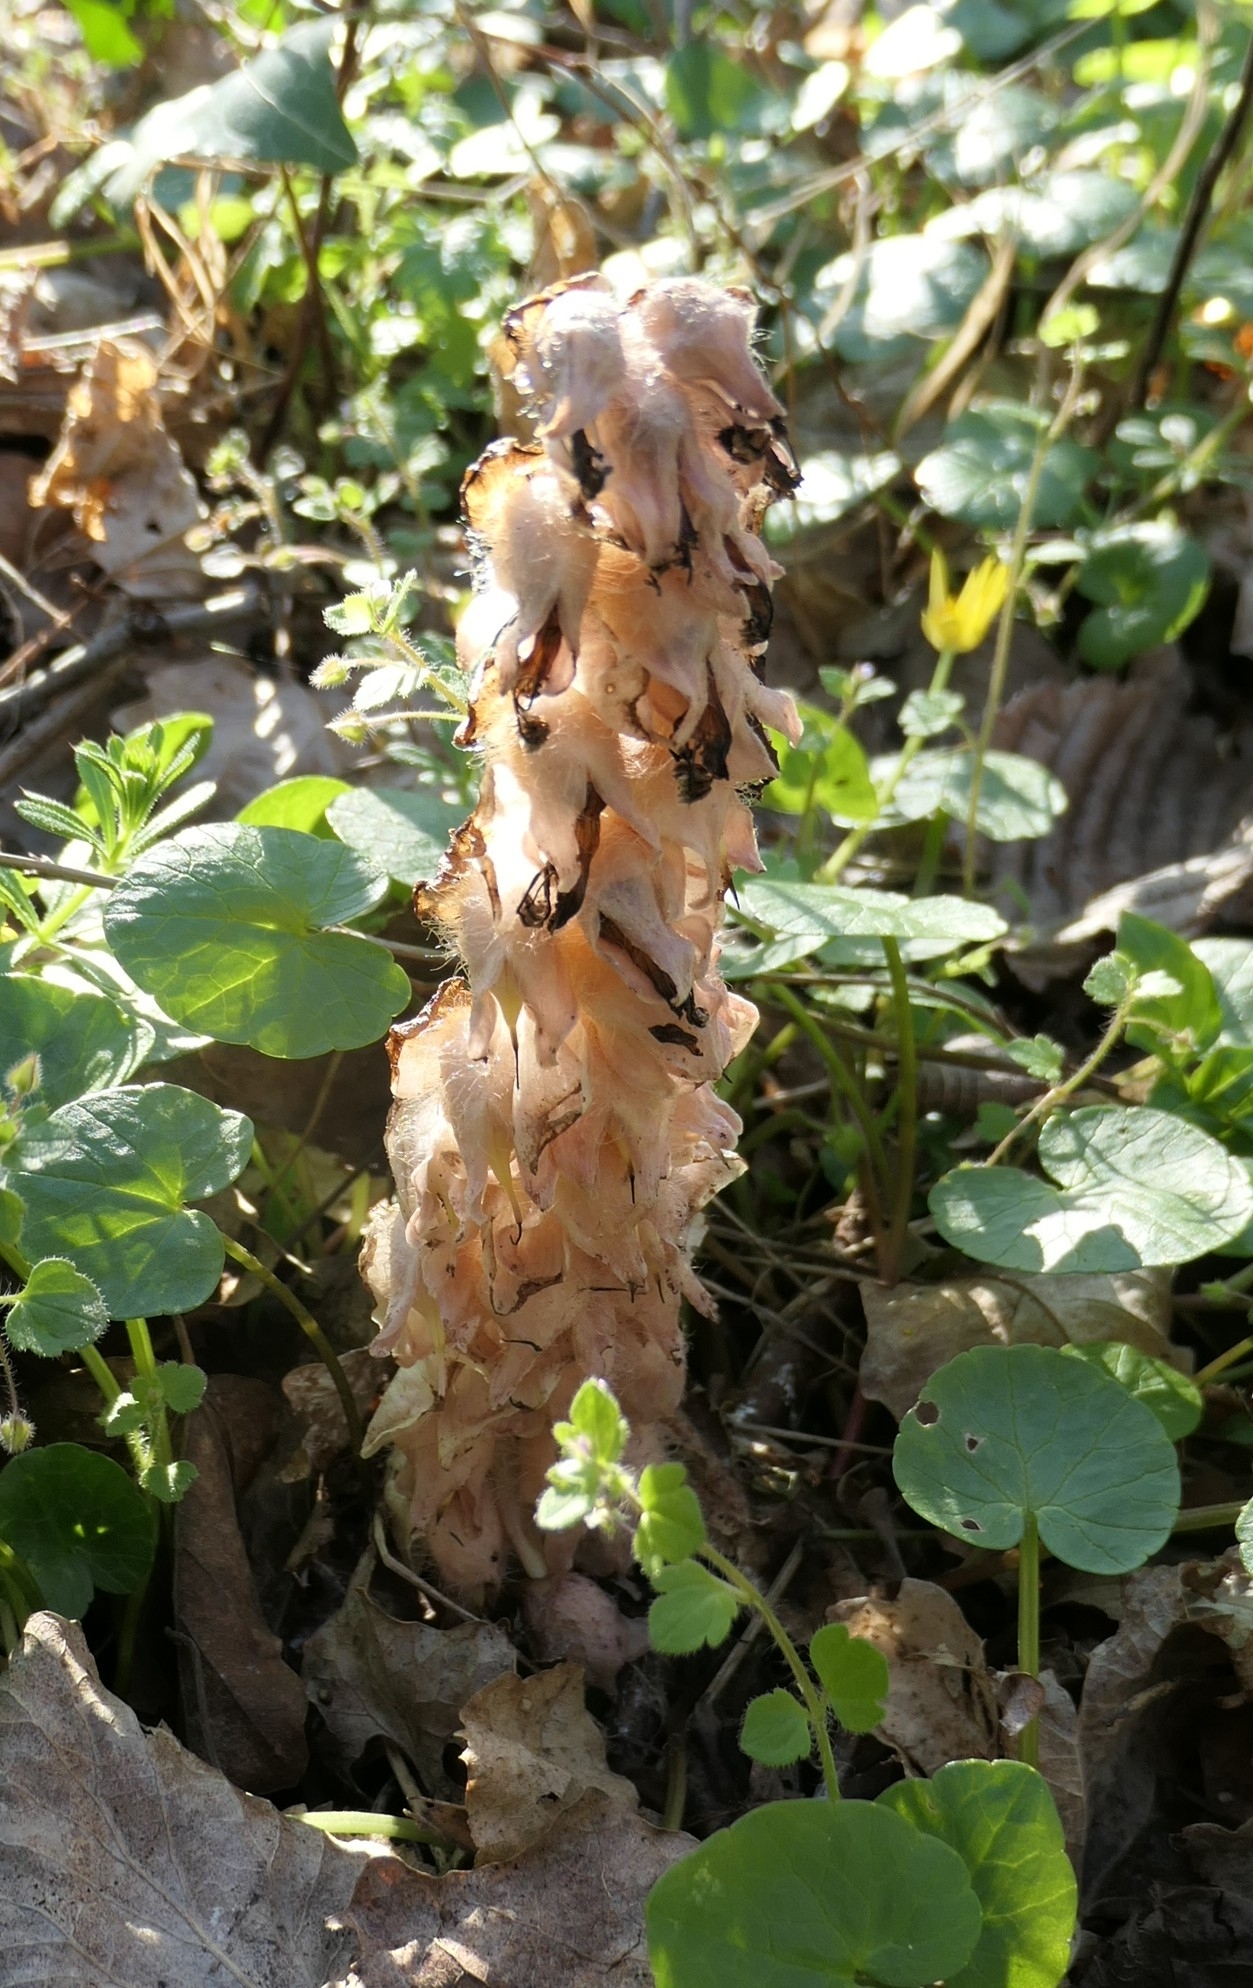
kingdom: Plantae
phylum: Tracheophyta
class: Magnoliopsida
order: Lamiales
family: Orobanchaceae
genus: Lathraea
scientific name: Lathraea squamaria
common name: Toothwort
